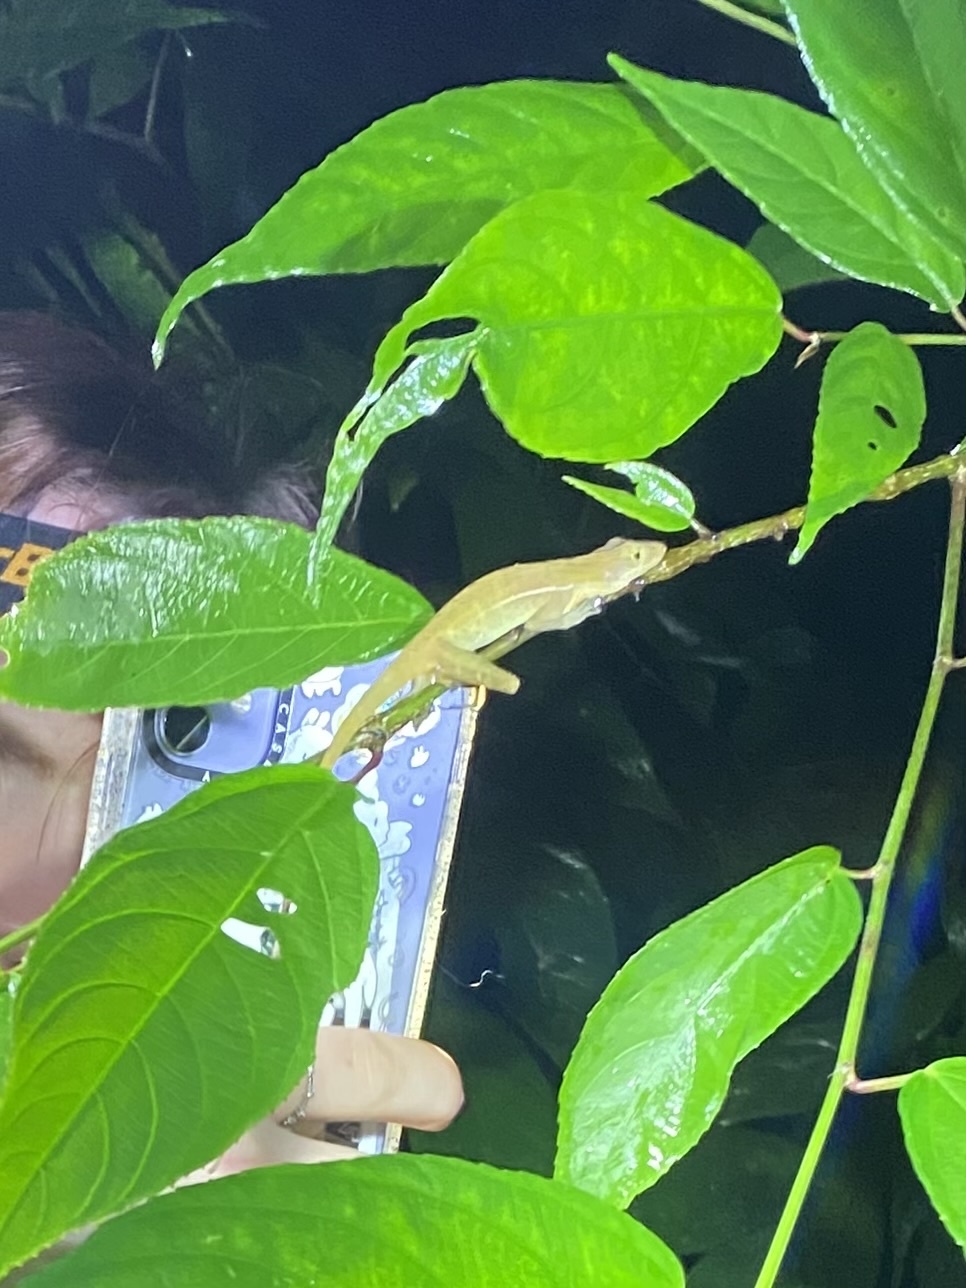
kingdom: Animalia
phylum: Chordata
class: Squamata
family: Dactyloidae
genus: Anolis
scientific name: Anolis polylepis
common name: Many-scaled anole
